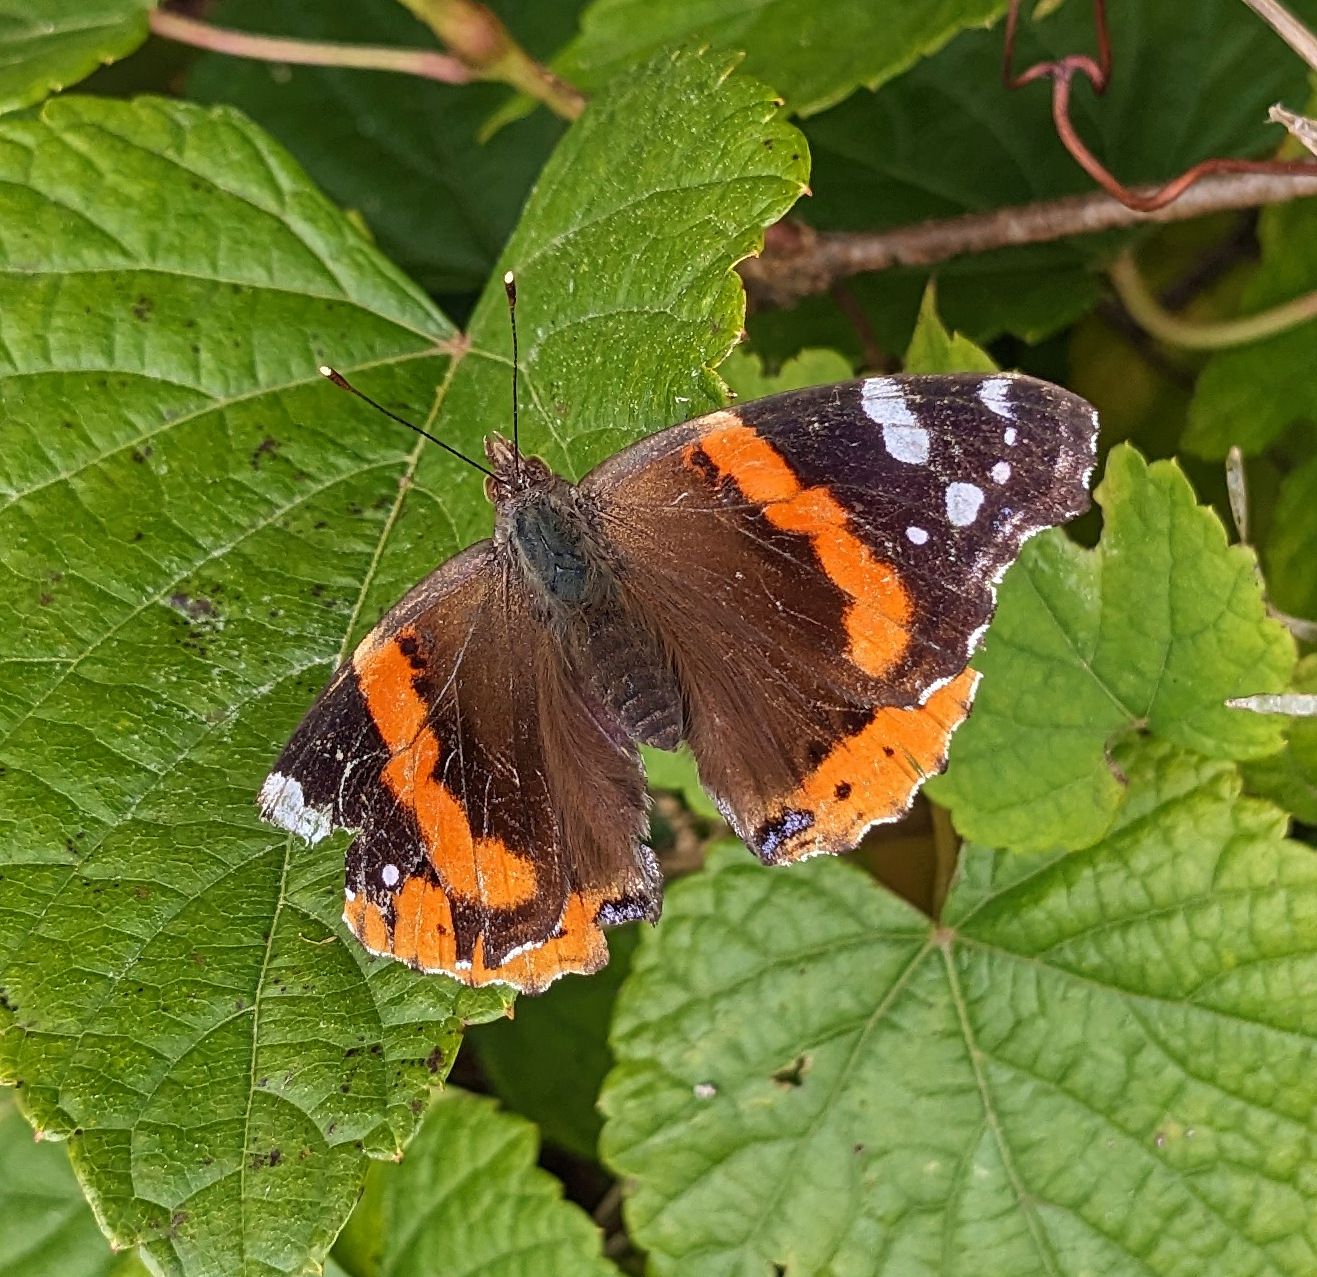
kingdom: Animalia
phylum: Arthropoda
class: Insecta
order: Lepidoptera
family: Nymphalidae
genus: Vanessa
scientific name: Vanessa atalanta
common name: Red admiral
